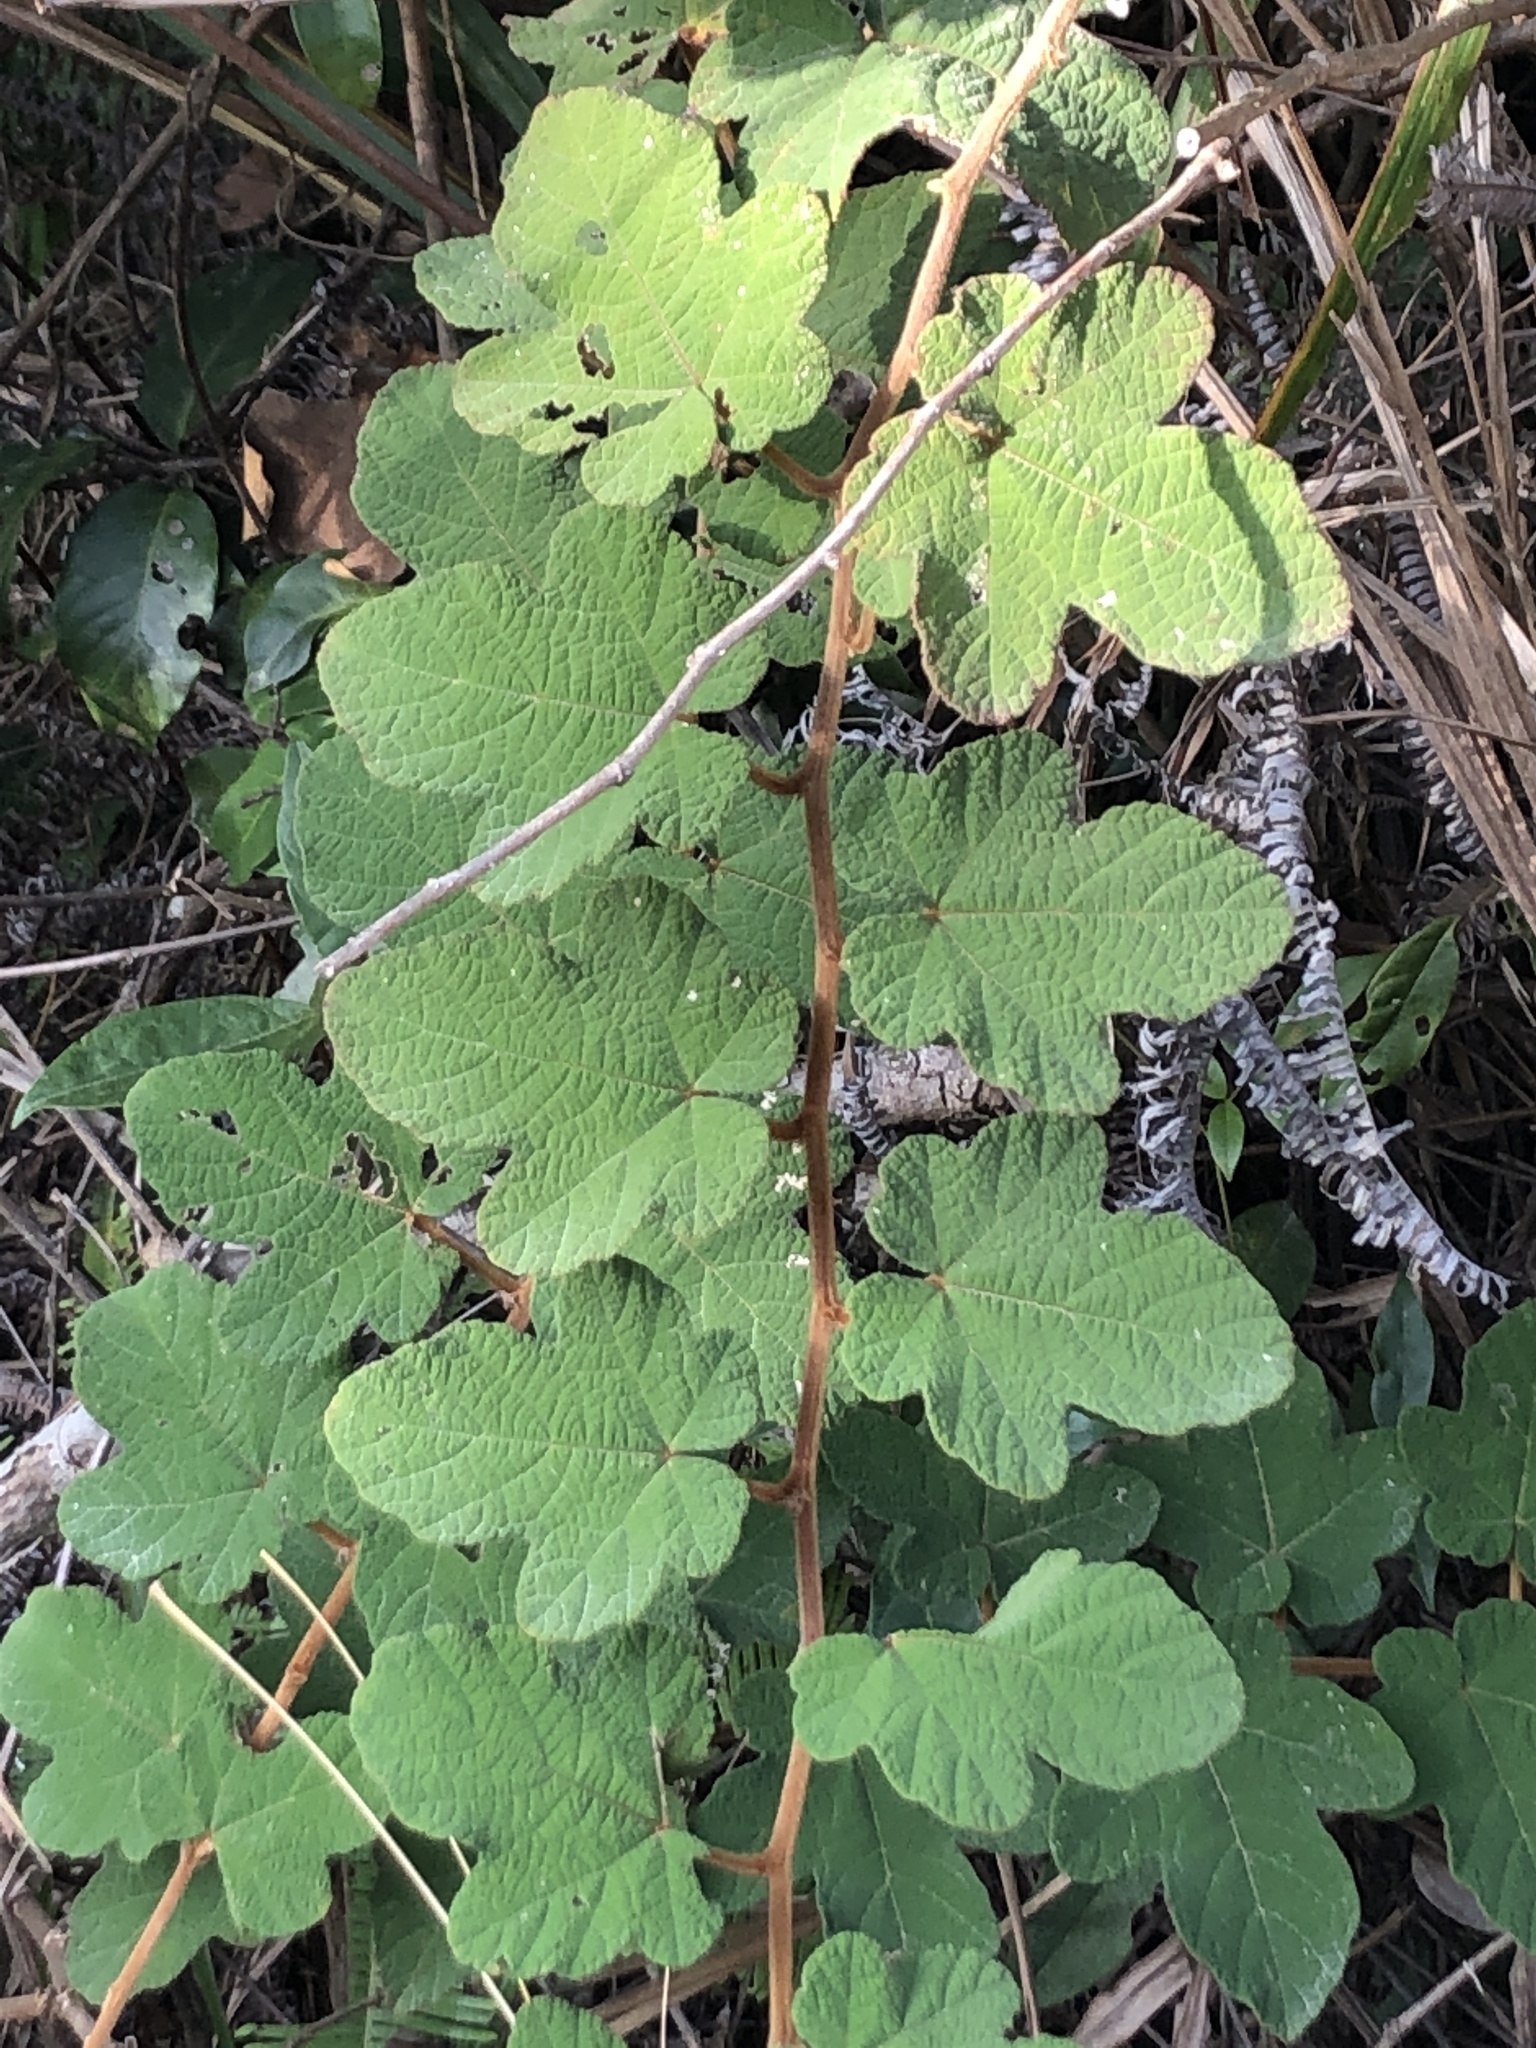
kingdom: Plantae
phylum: Tracheophyta
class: Magnoliopsida
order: Rosales
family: Rosaceae
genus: Rubus
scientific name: Rubus reflexus
